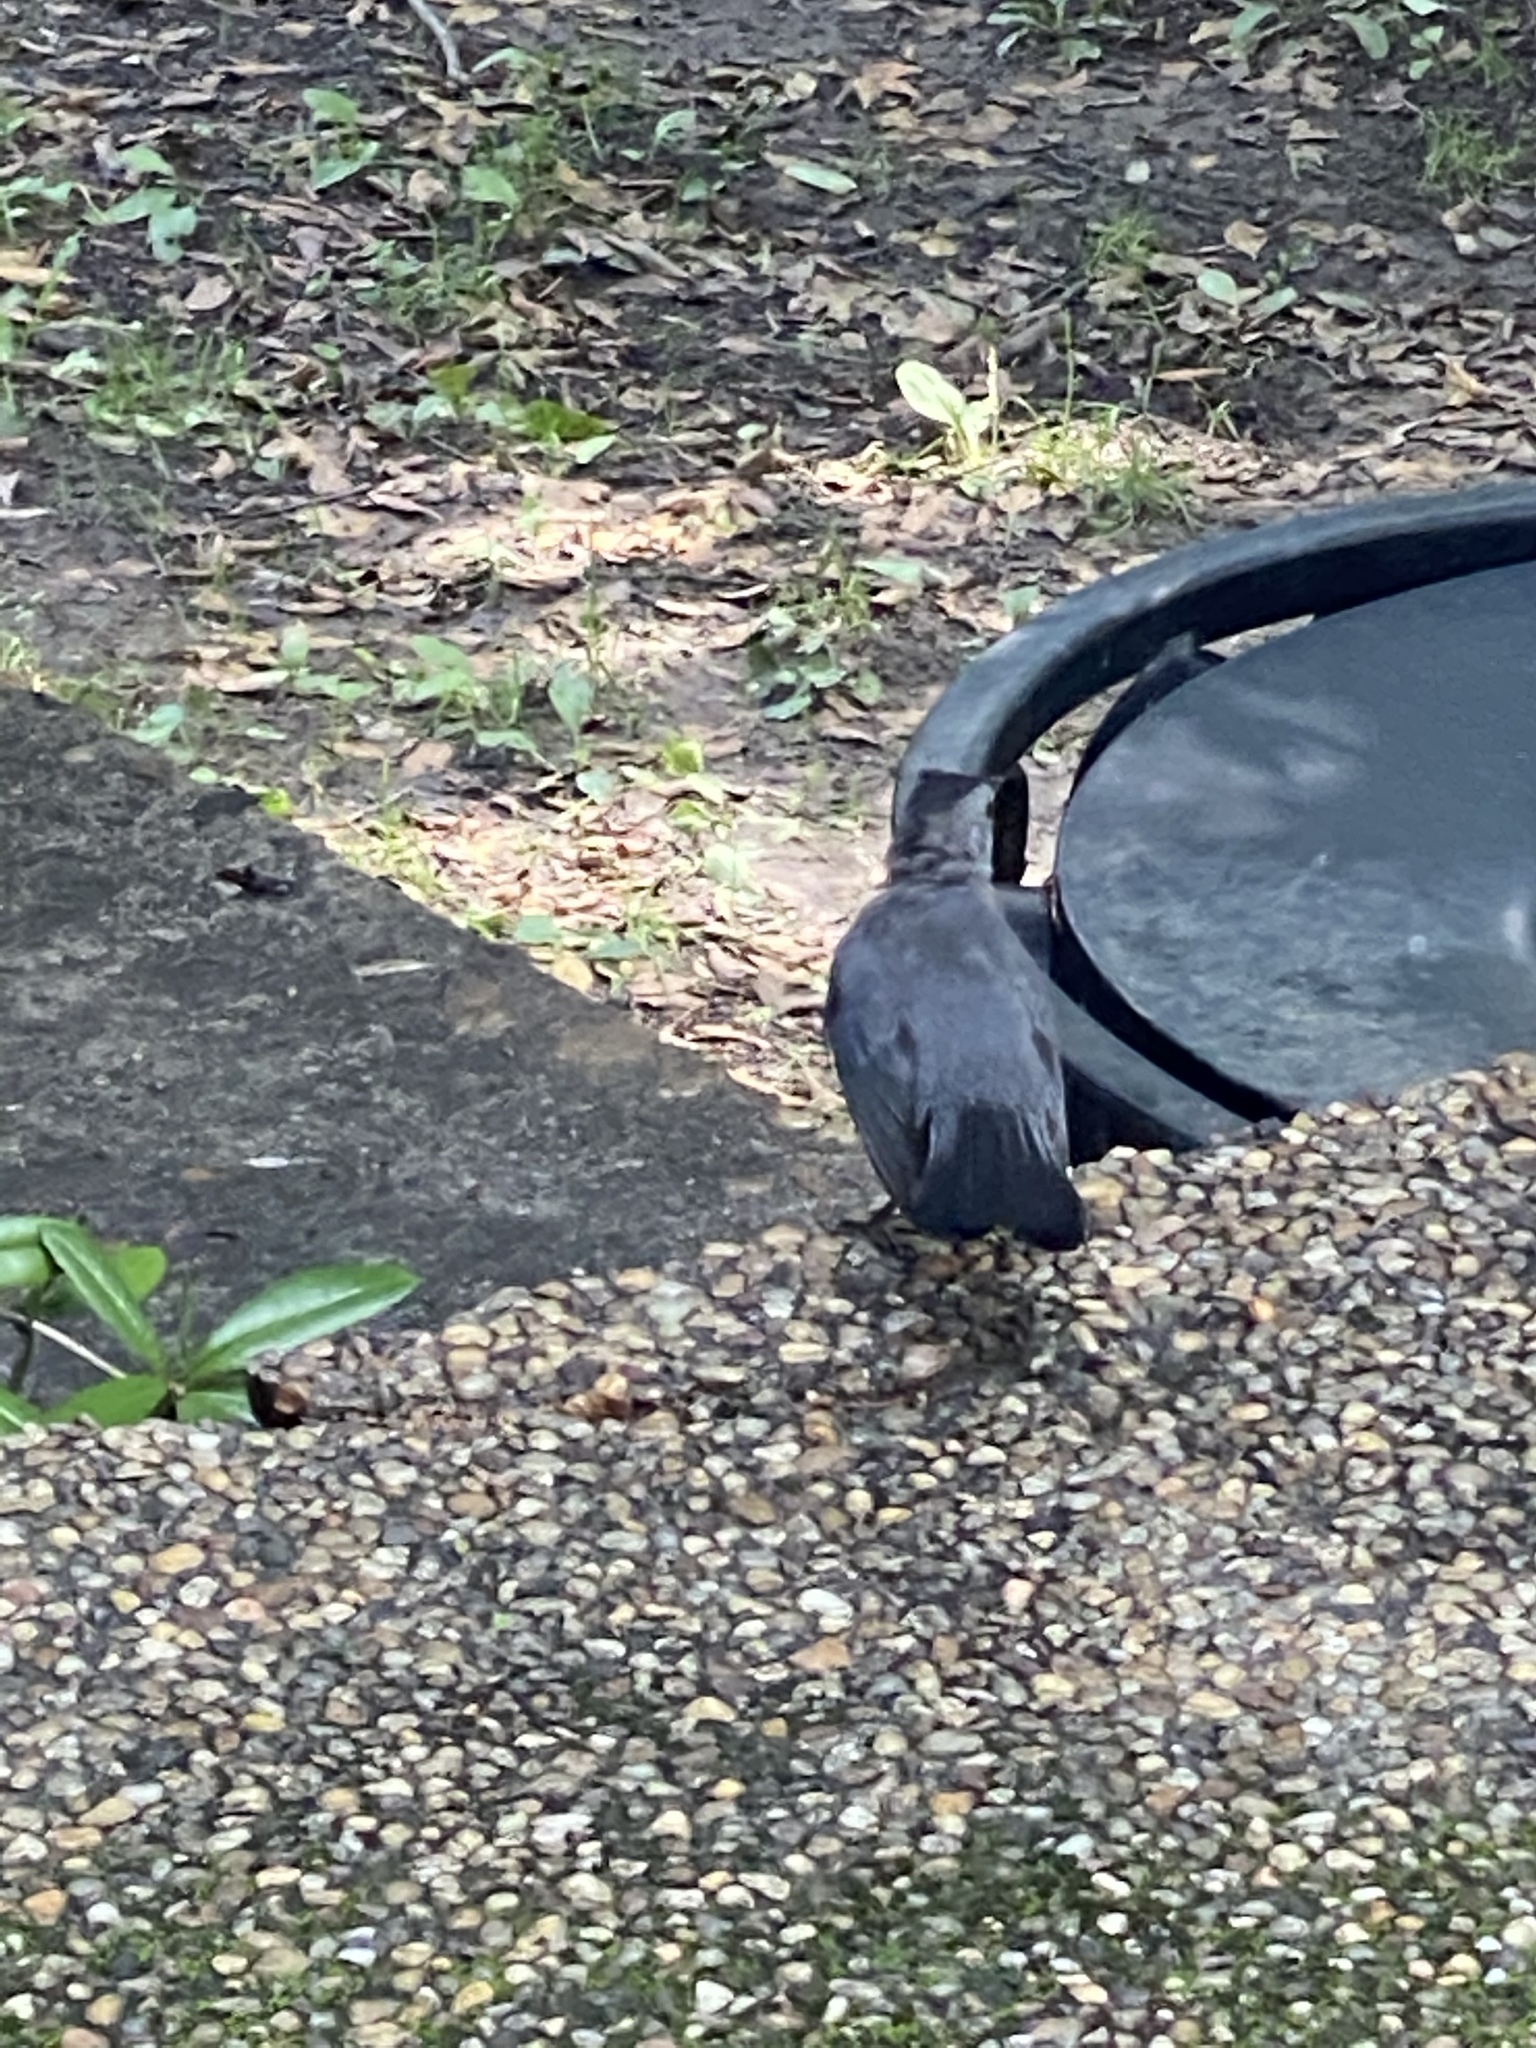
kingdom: Animalia
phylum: Chordata
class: Aves
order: Passeriformes
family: Mimidae
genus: Dumetella
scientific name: Dumetella carolinensis
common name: Gray catbird
